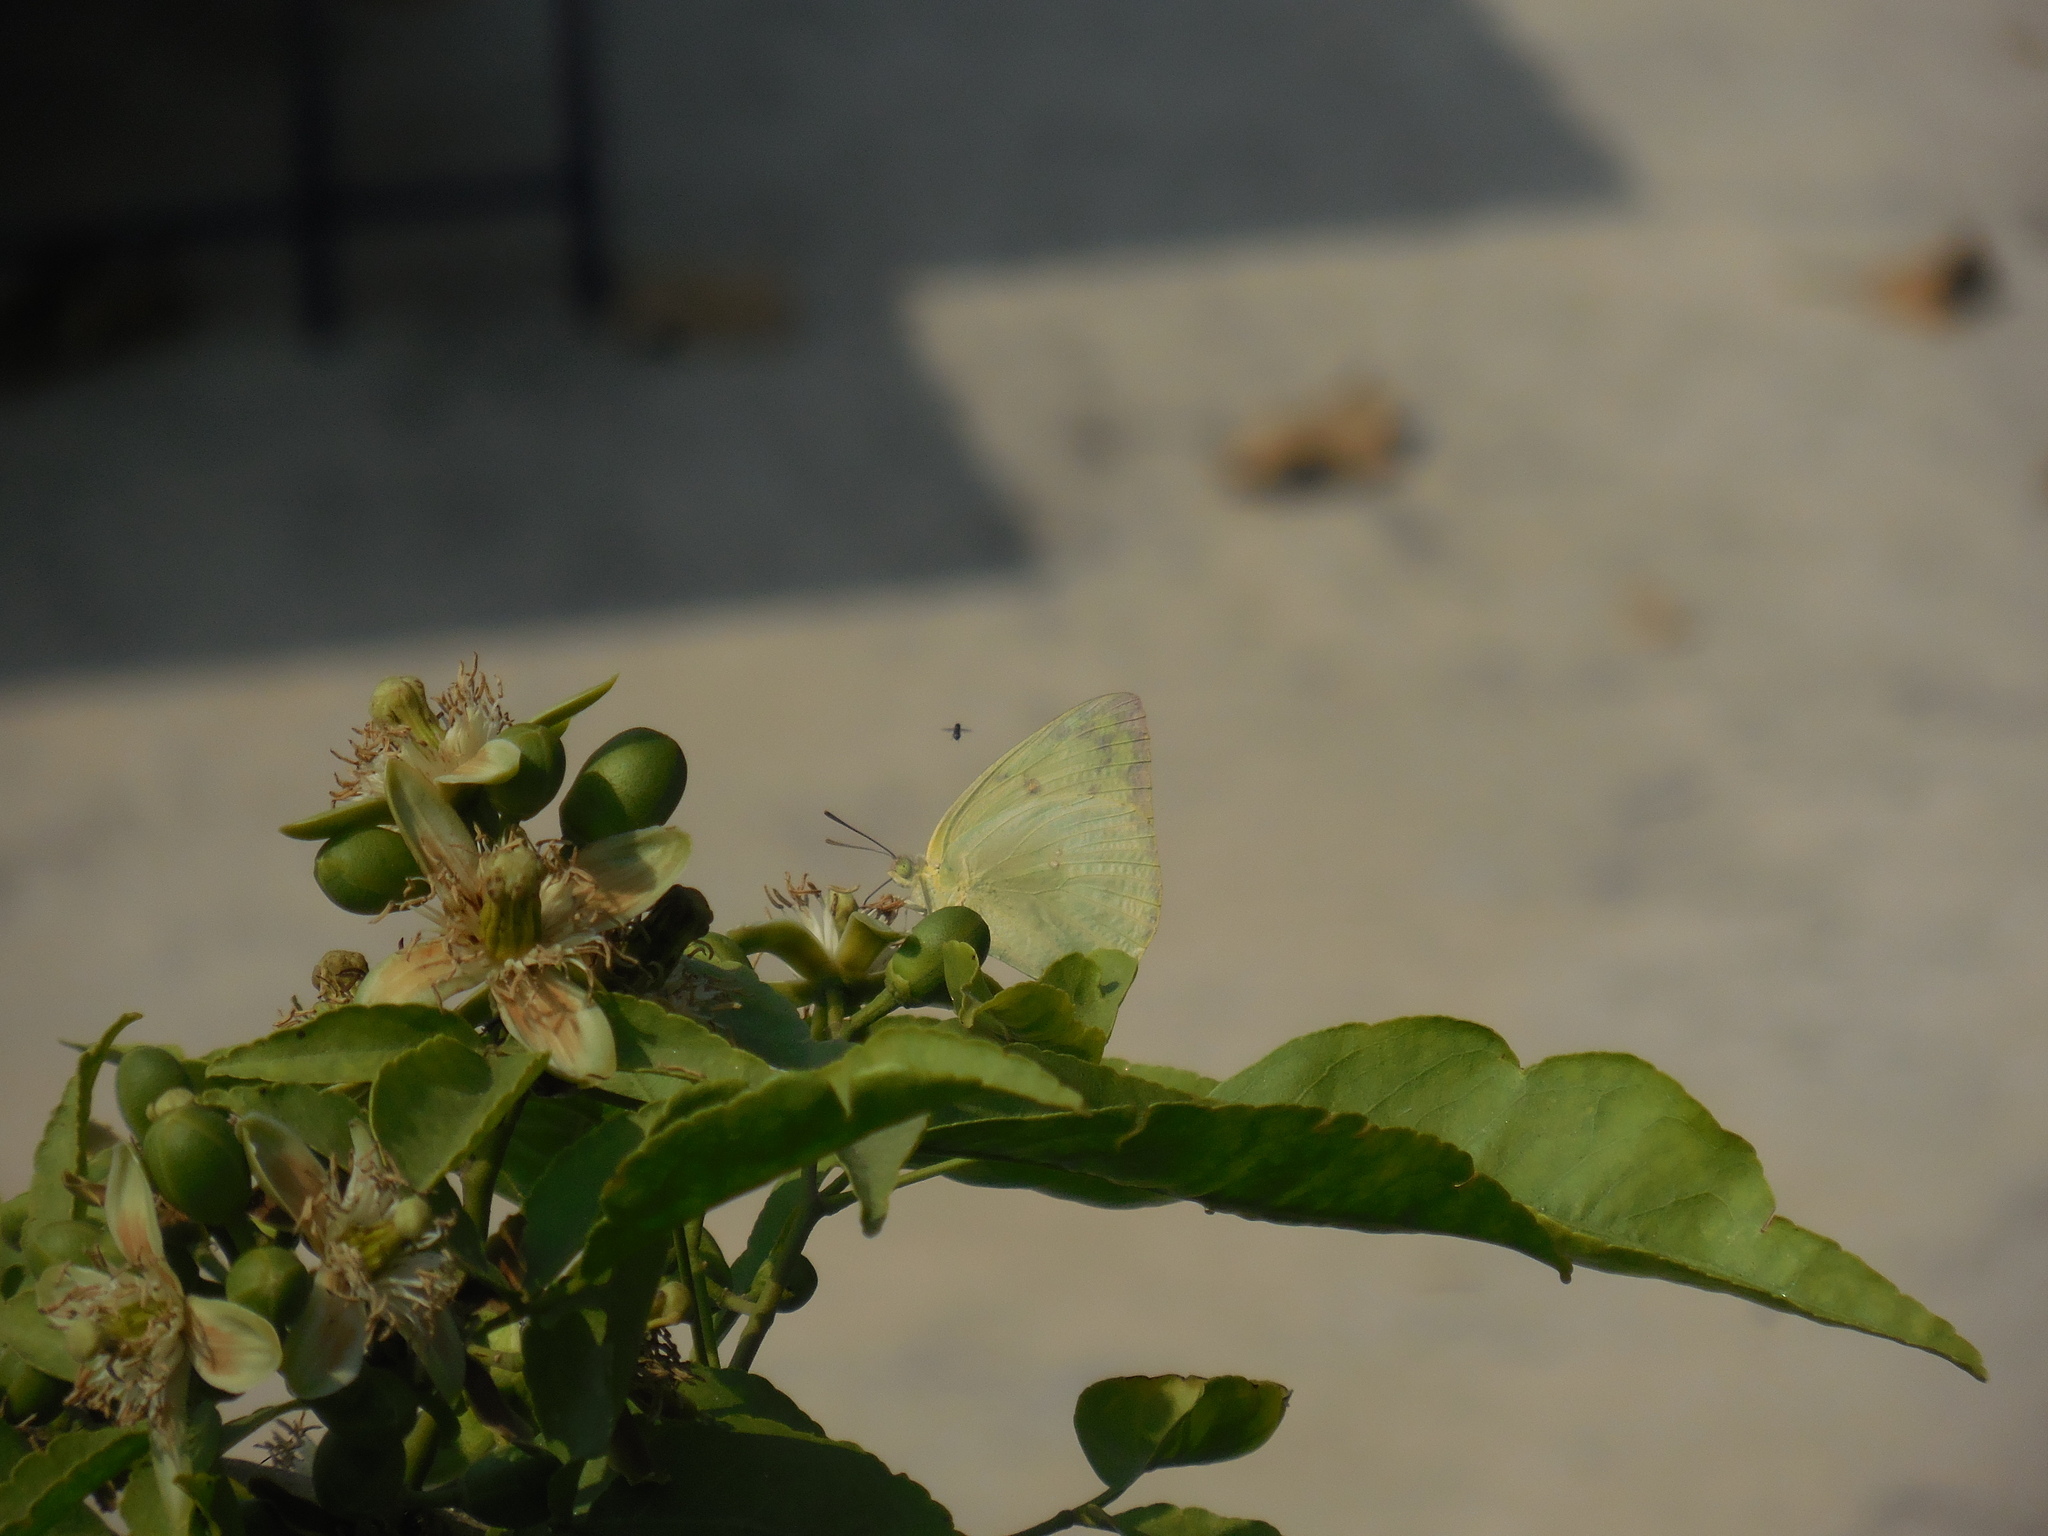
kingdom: Animalia
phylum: Arthropoda
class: Insecta
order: Lepidoptera
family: Pieridae
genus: Catopsilia
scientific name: Catopsilia pomona
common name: Common emigrant
